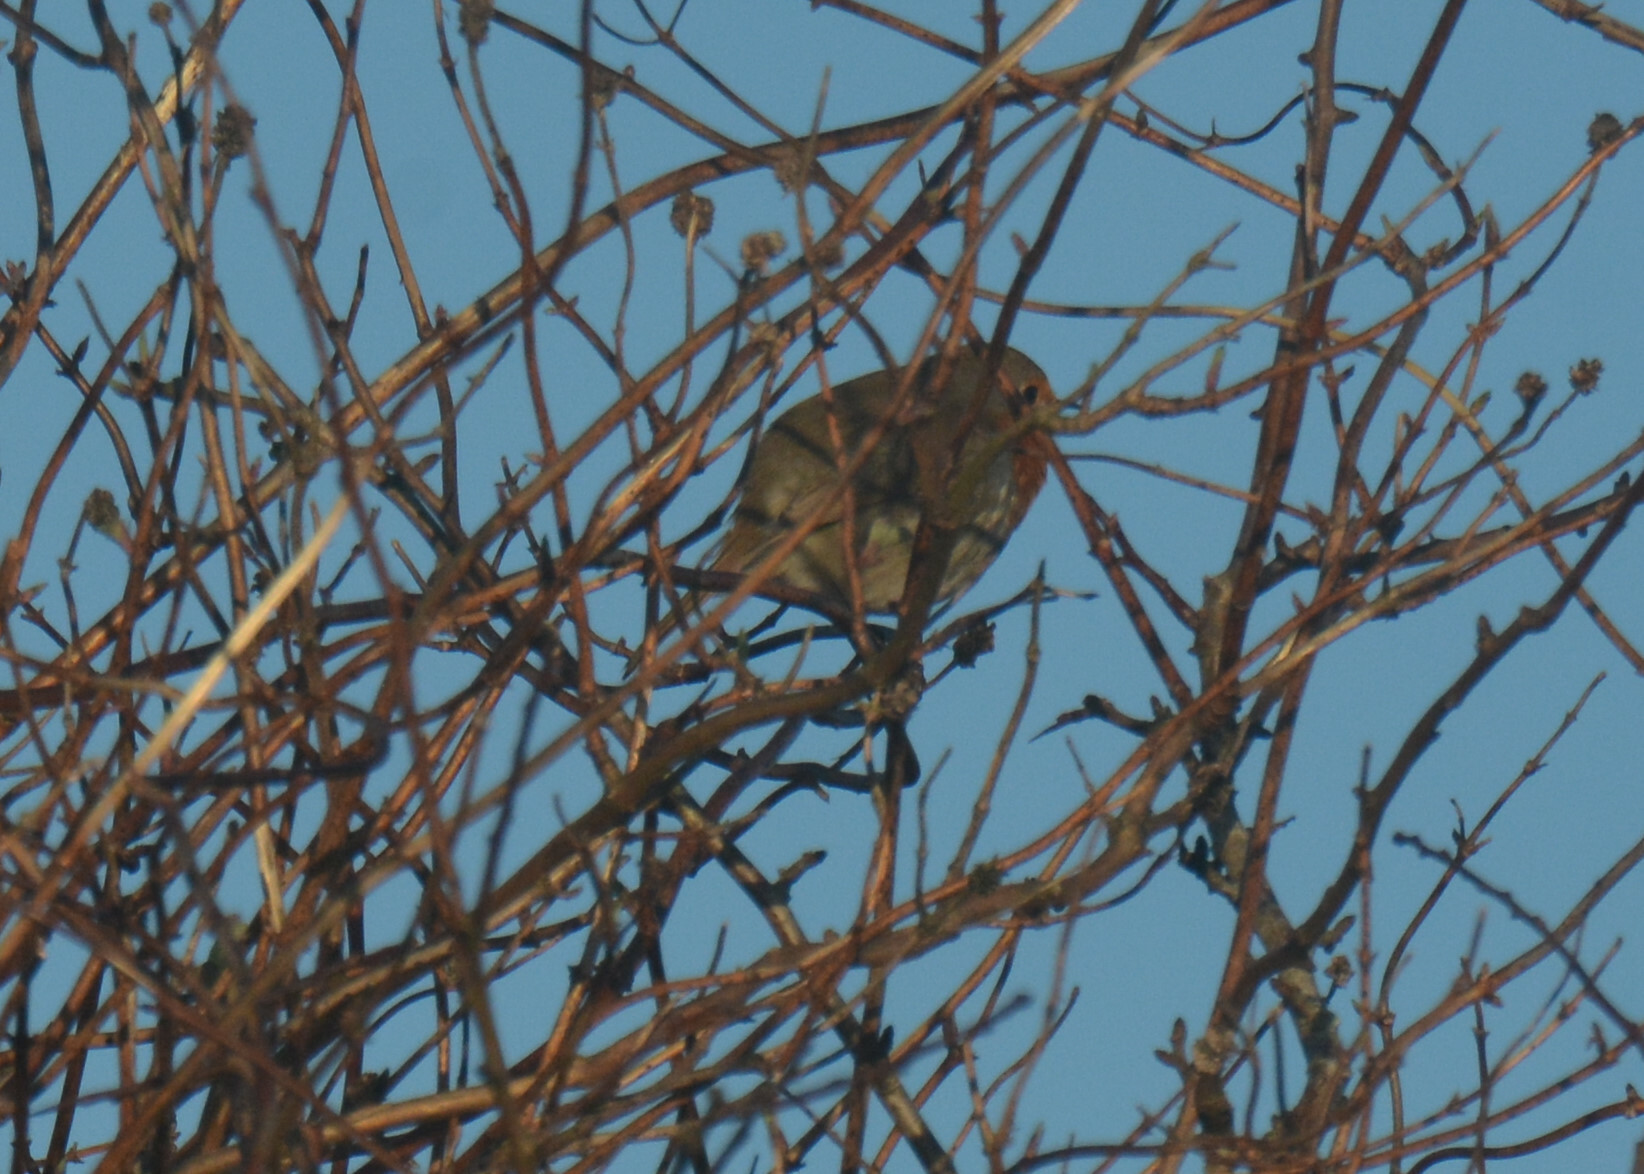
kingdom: Animalia
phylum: Chordata
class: Aves
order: Passeriformes
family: Muscicapidae
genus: Erithacus
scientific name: Erithacus rubecula
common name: European robin
